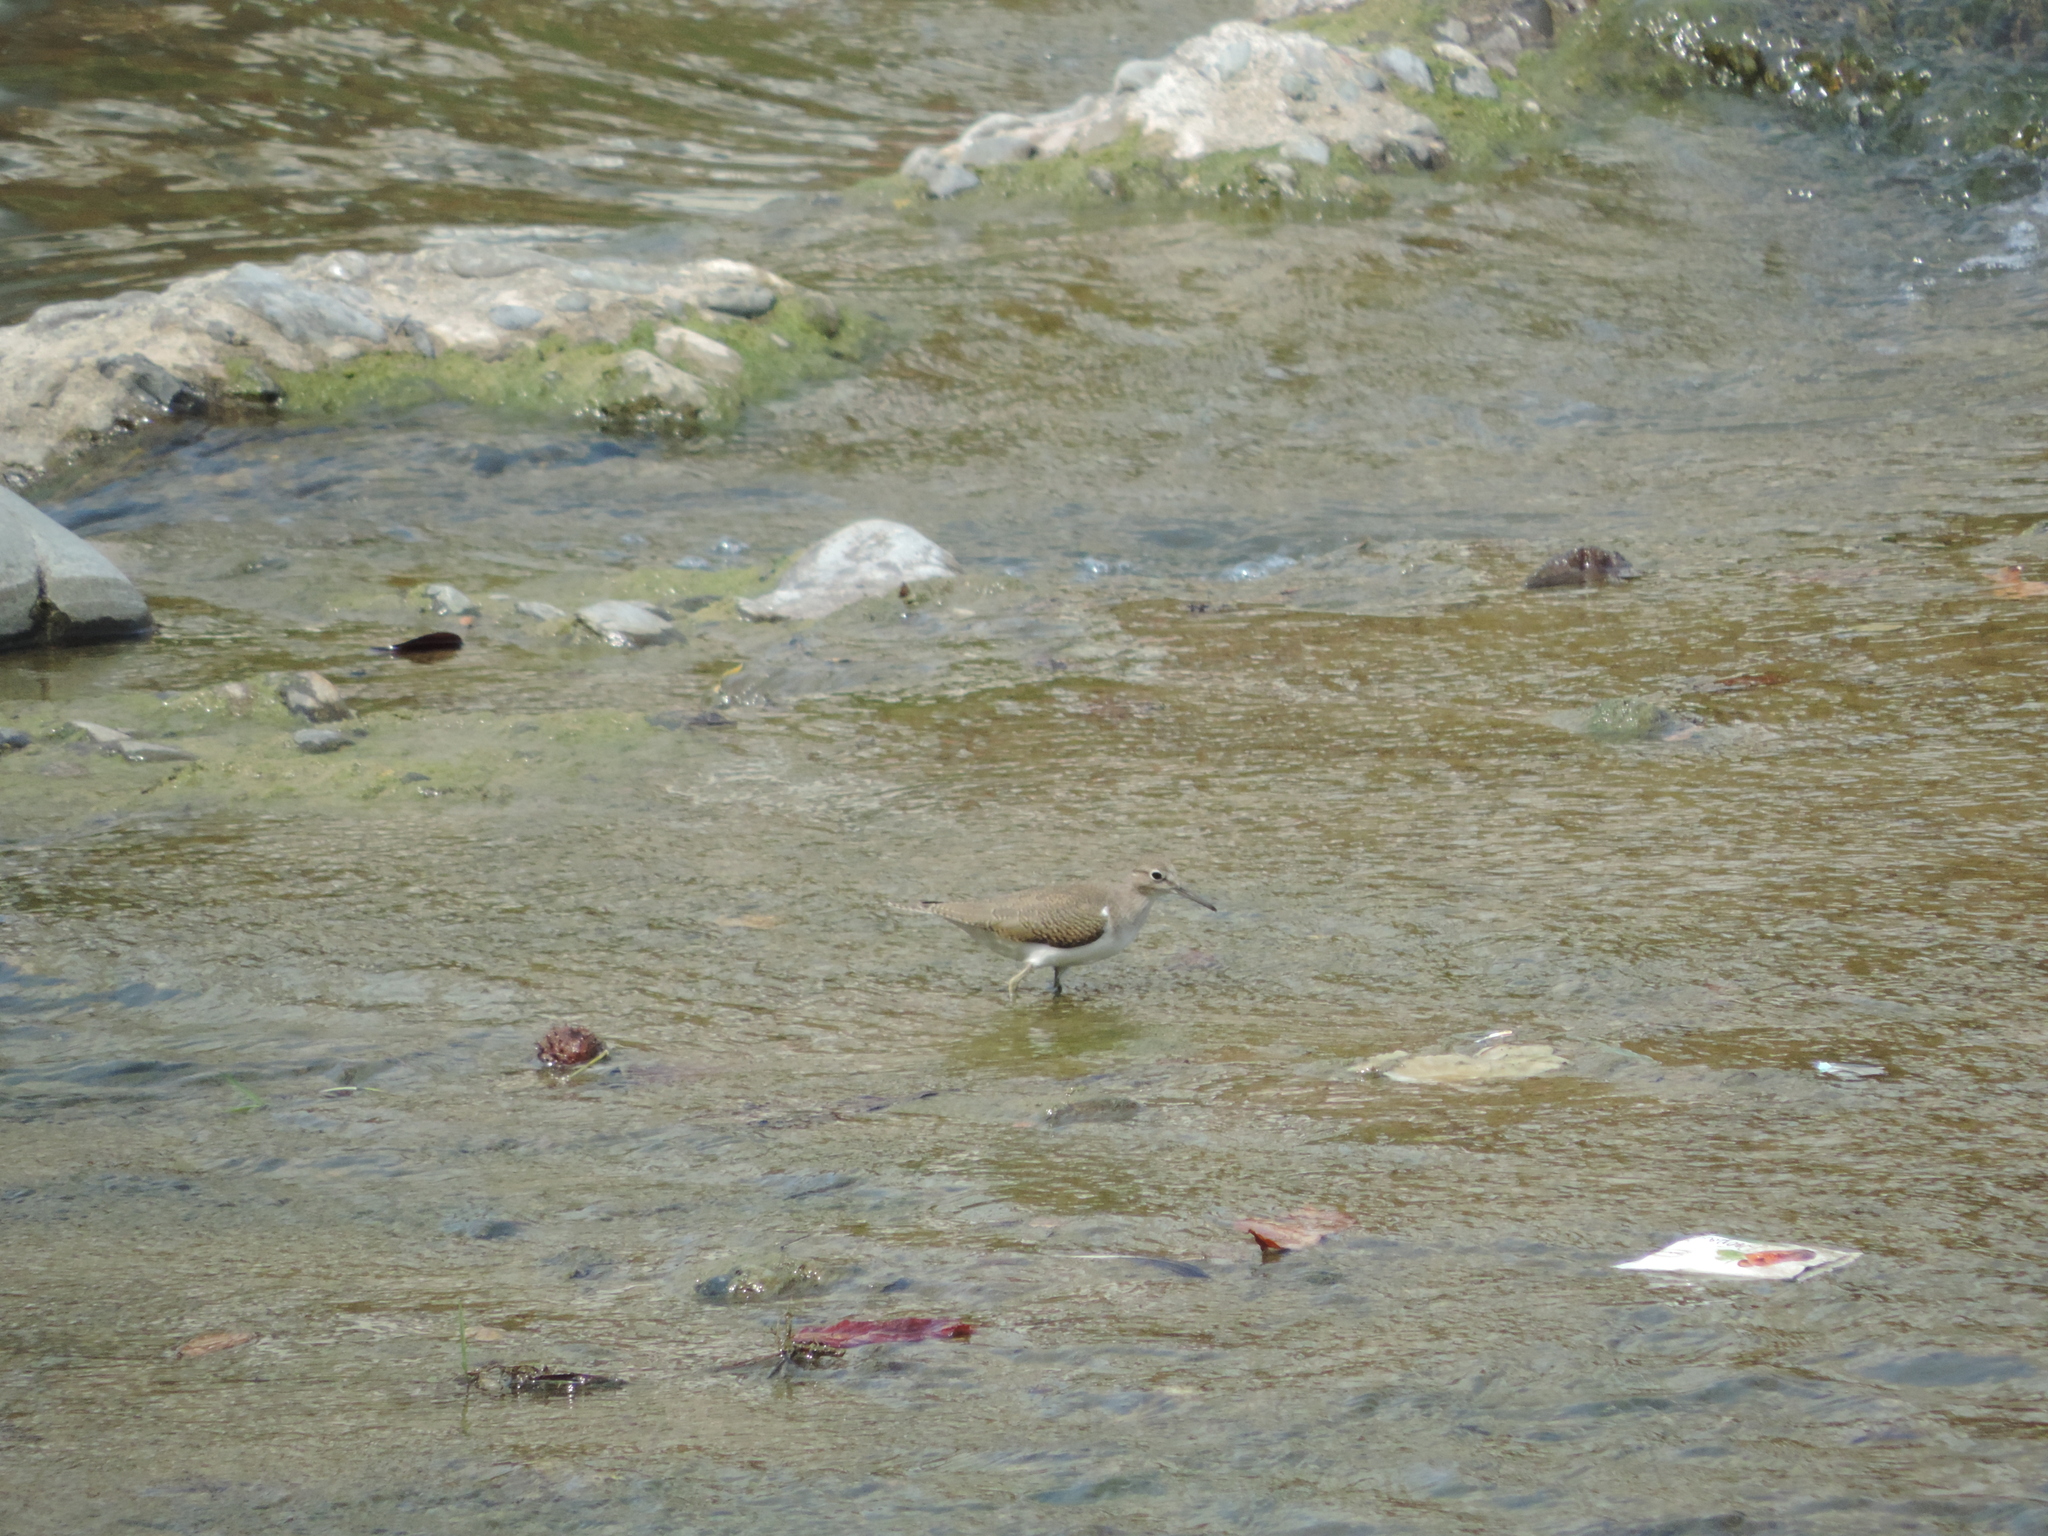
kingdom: Animalia
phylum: Chordata
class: Aves
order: Charadriiformes
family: Scolopacidae
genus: Actitis
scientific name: Actitis hypoleucos
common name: Common sandpiper
